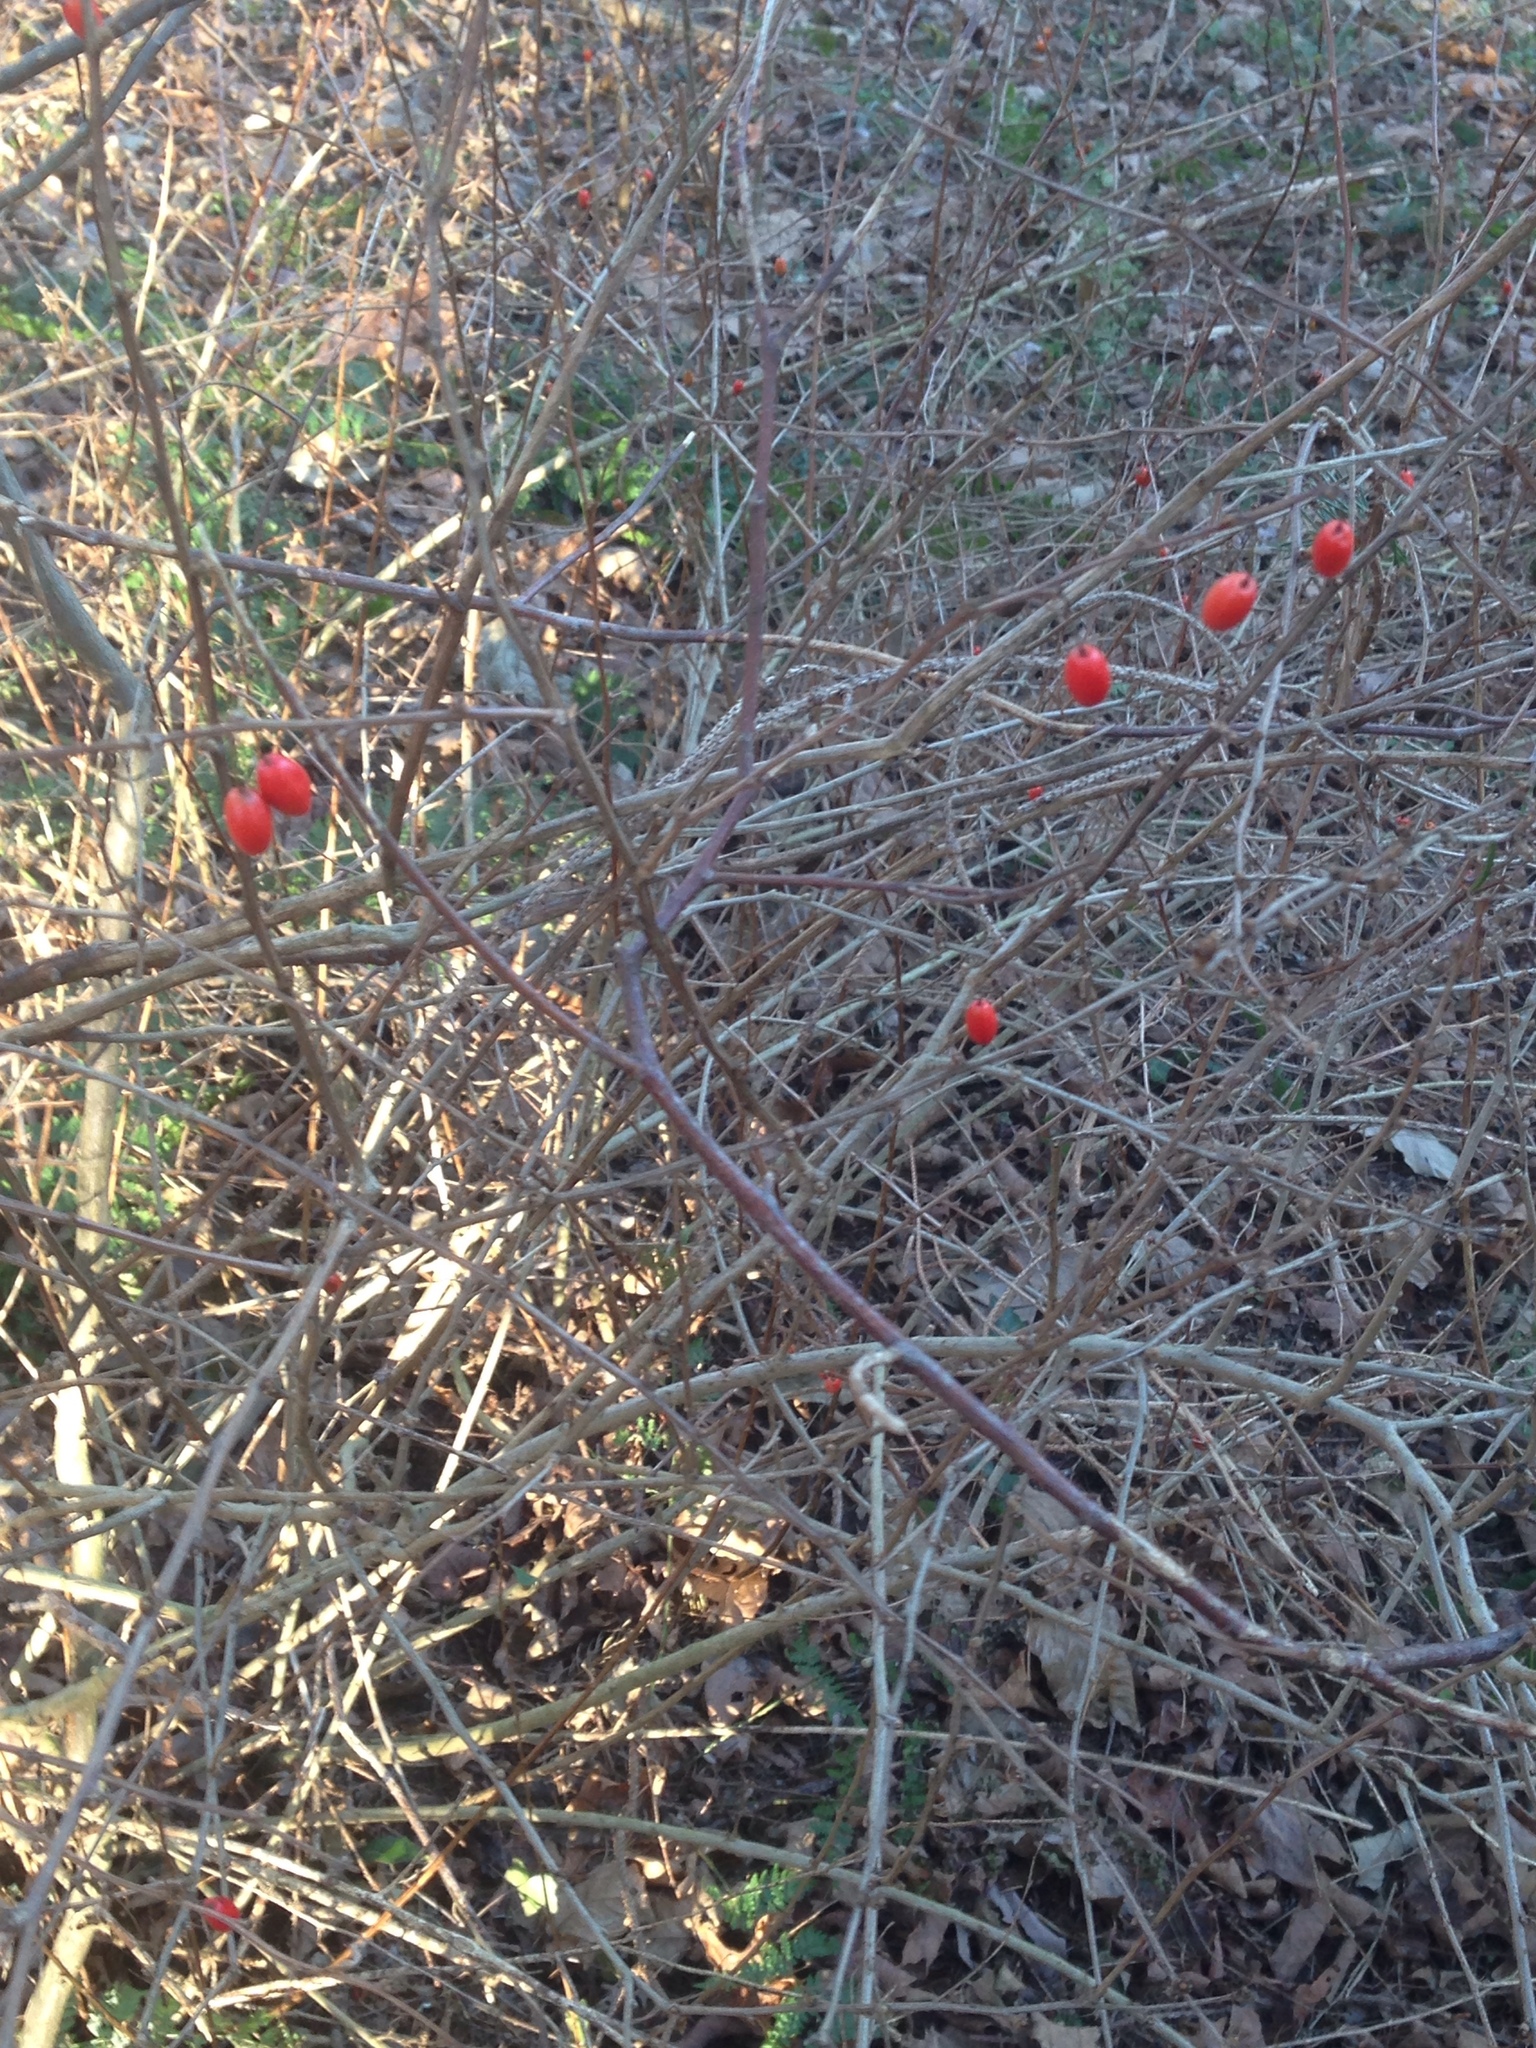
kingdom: Plantae
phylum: Tracheophyta
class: Magnoliopsida
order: Ranunculales
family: Berberidaceae
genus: Berberis
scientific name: Berberis thunbergii
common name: Japanese barberry
